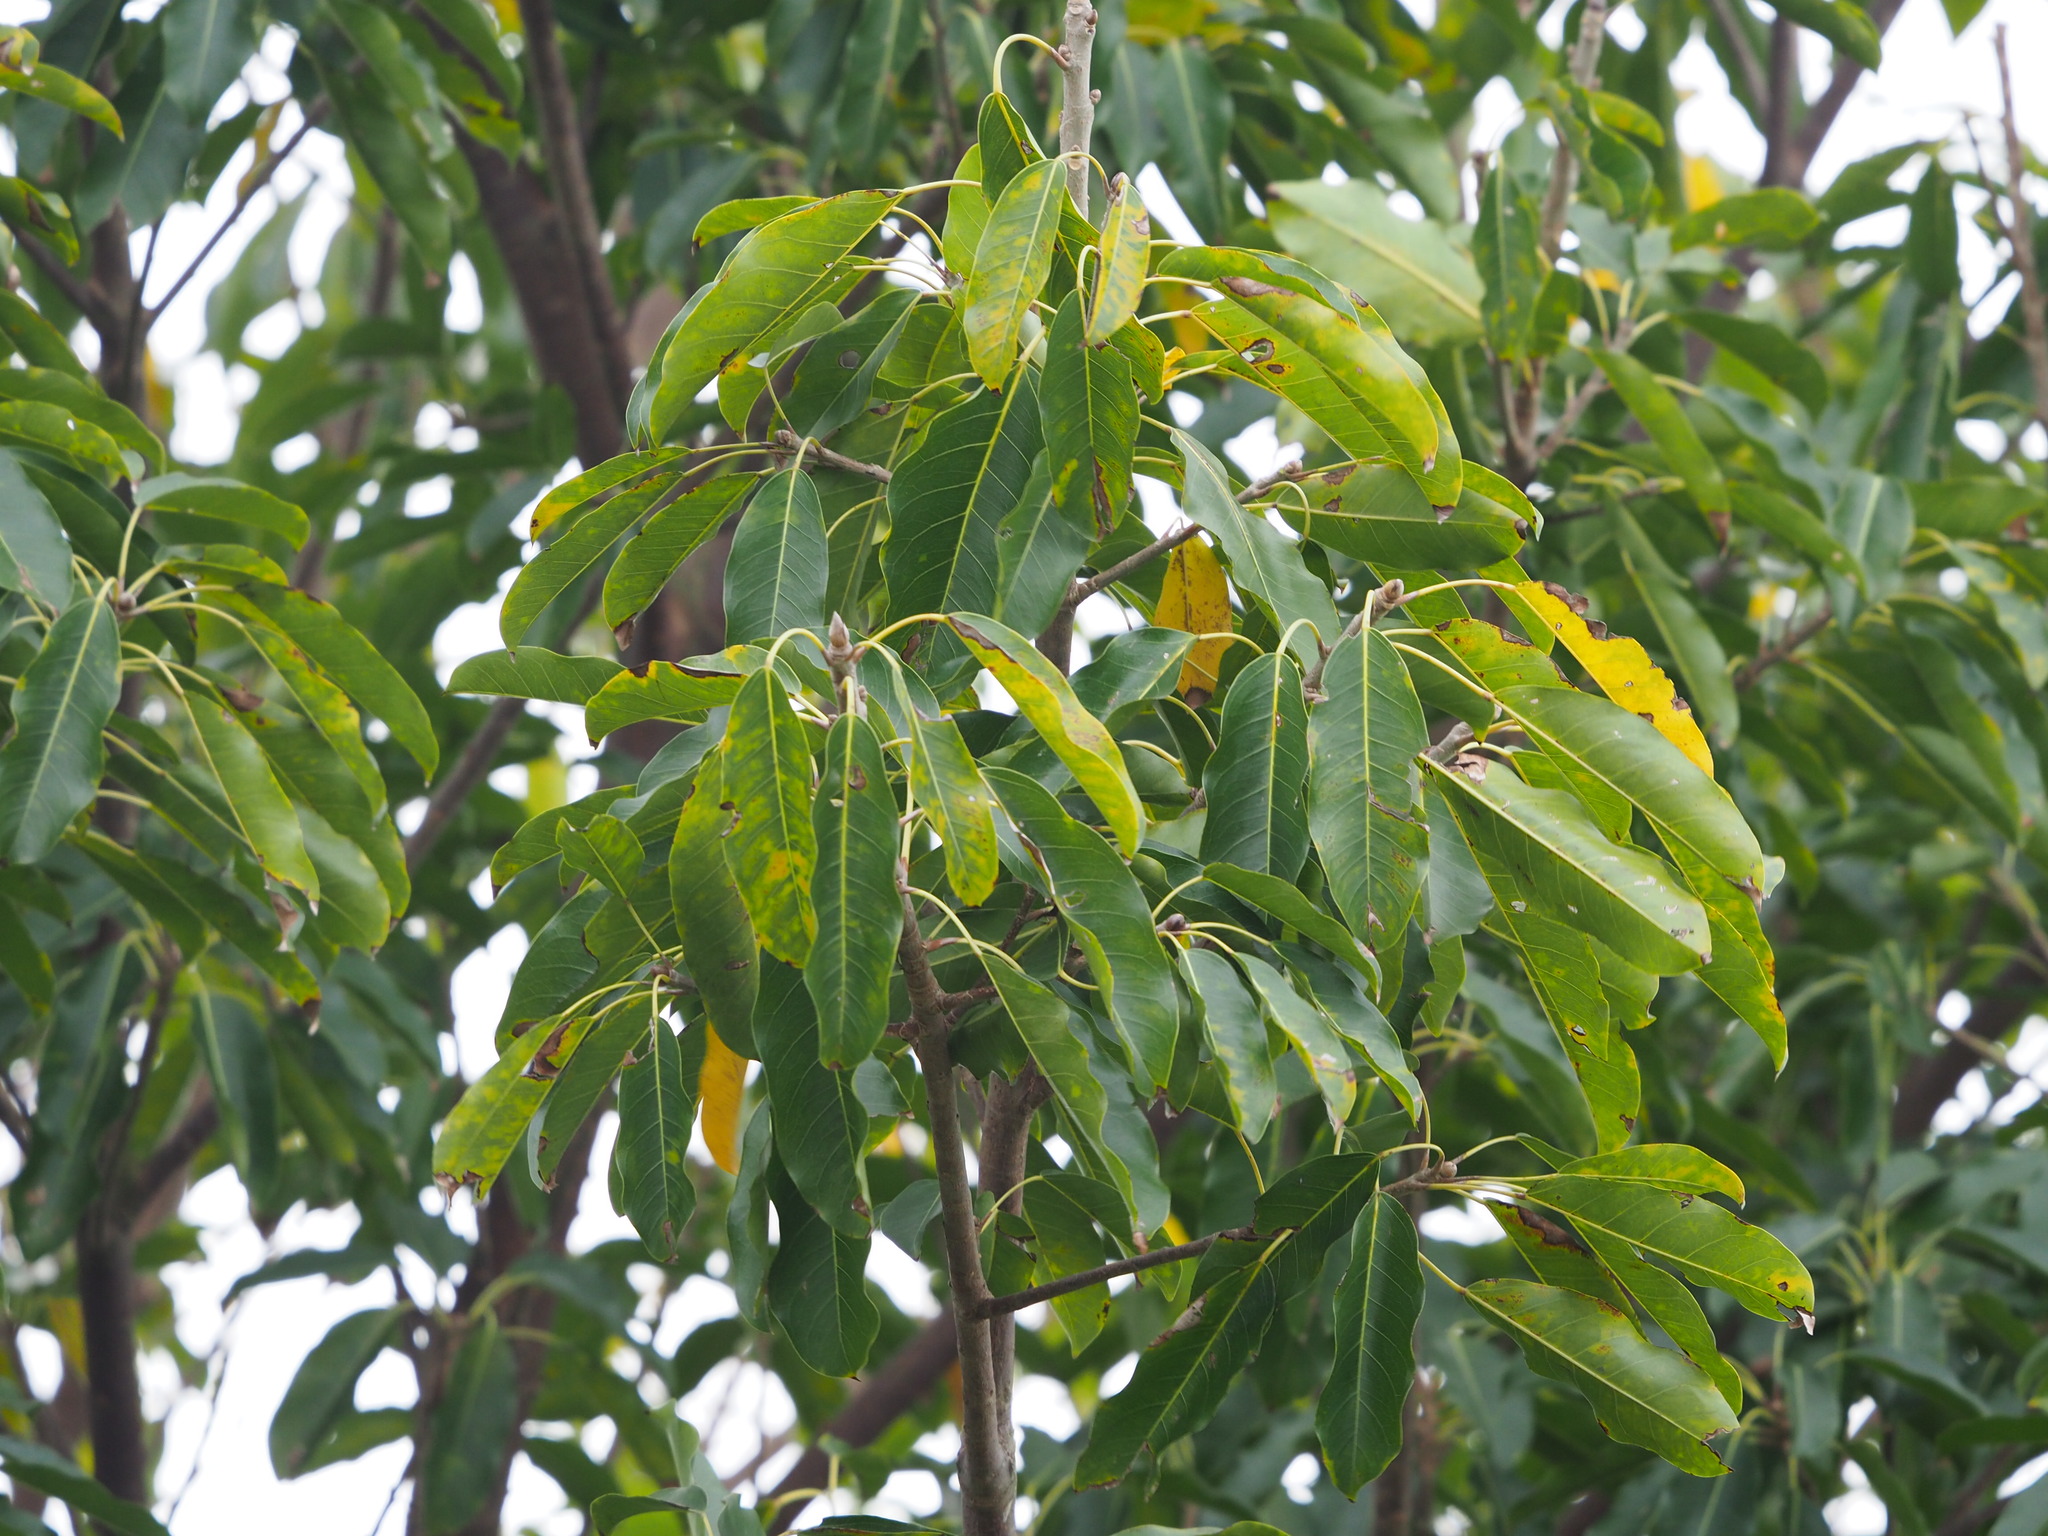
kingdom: Plantae
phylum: Tracheophyta
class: Magnoliopsida
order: Rosales
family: Moraceae
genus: Ficus
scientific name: Ficus subpisocarpa
